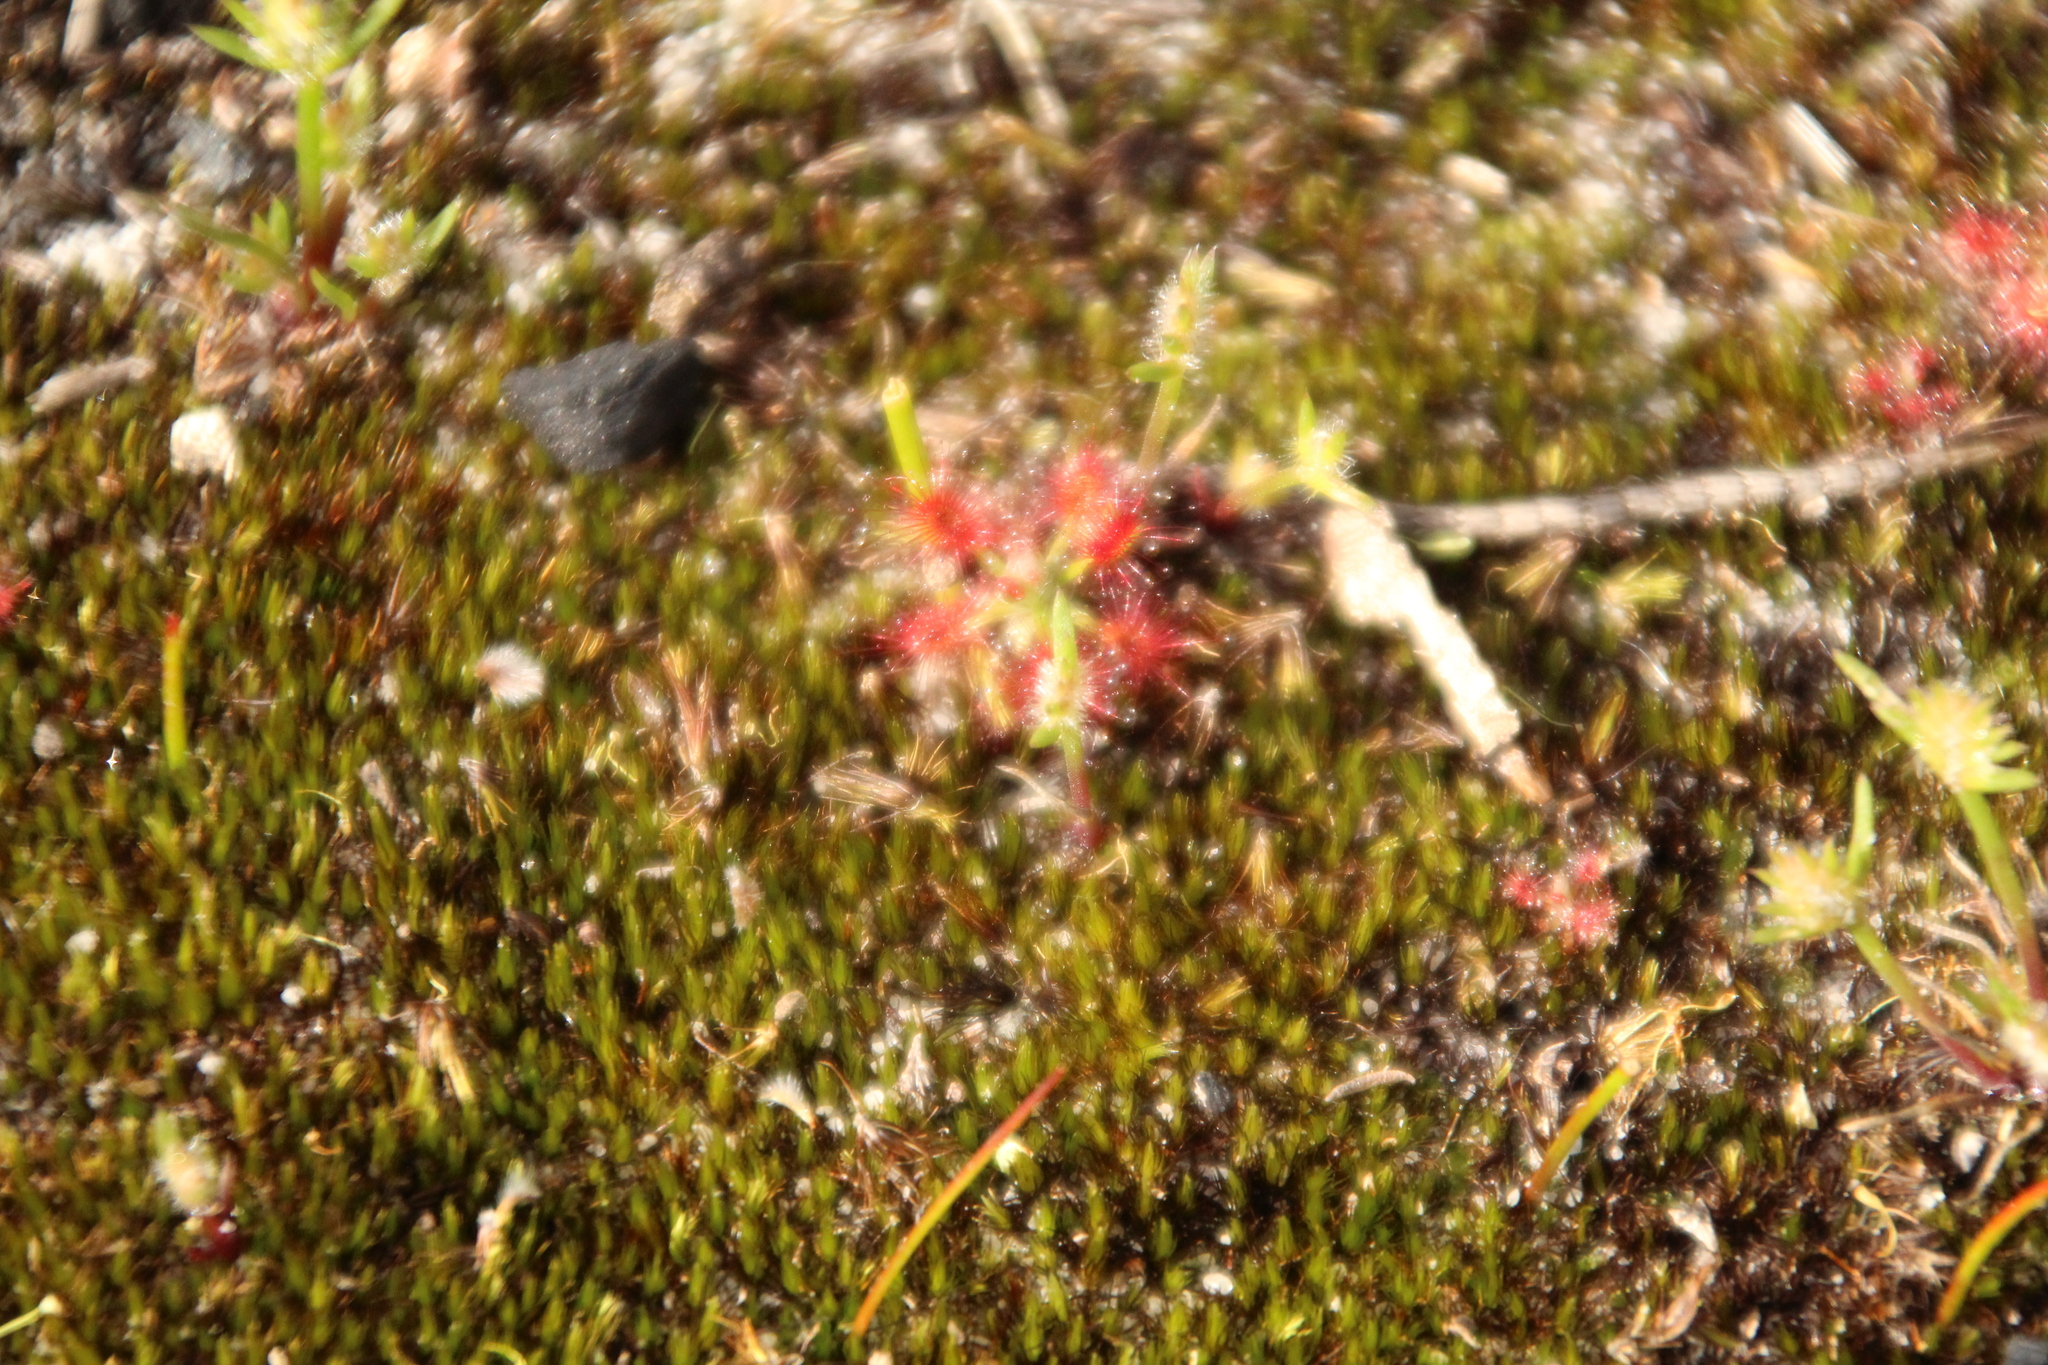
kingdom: Plantae
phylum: Tracheophyta
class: Magnoliopsida
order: Caryophyllales
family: Droseraceae
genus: Drosera
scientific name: Drosera paleacea
